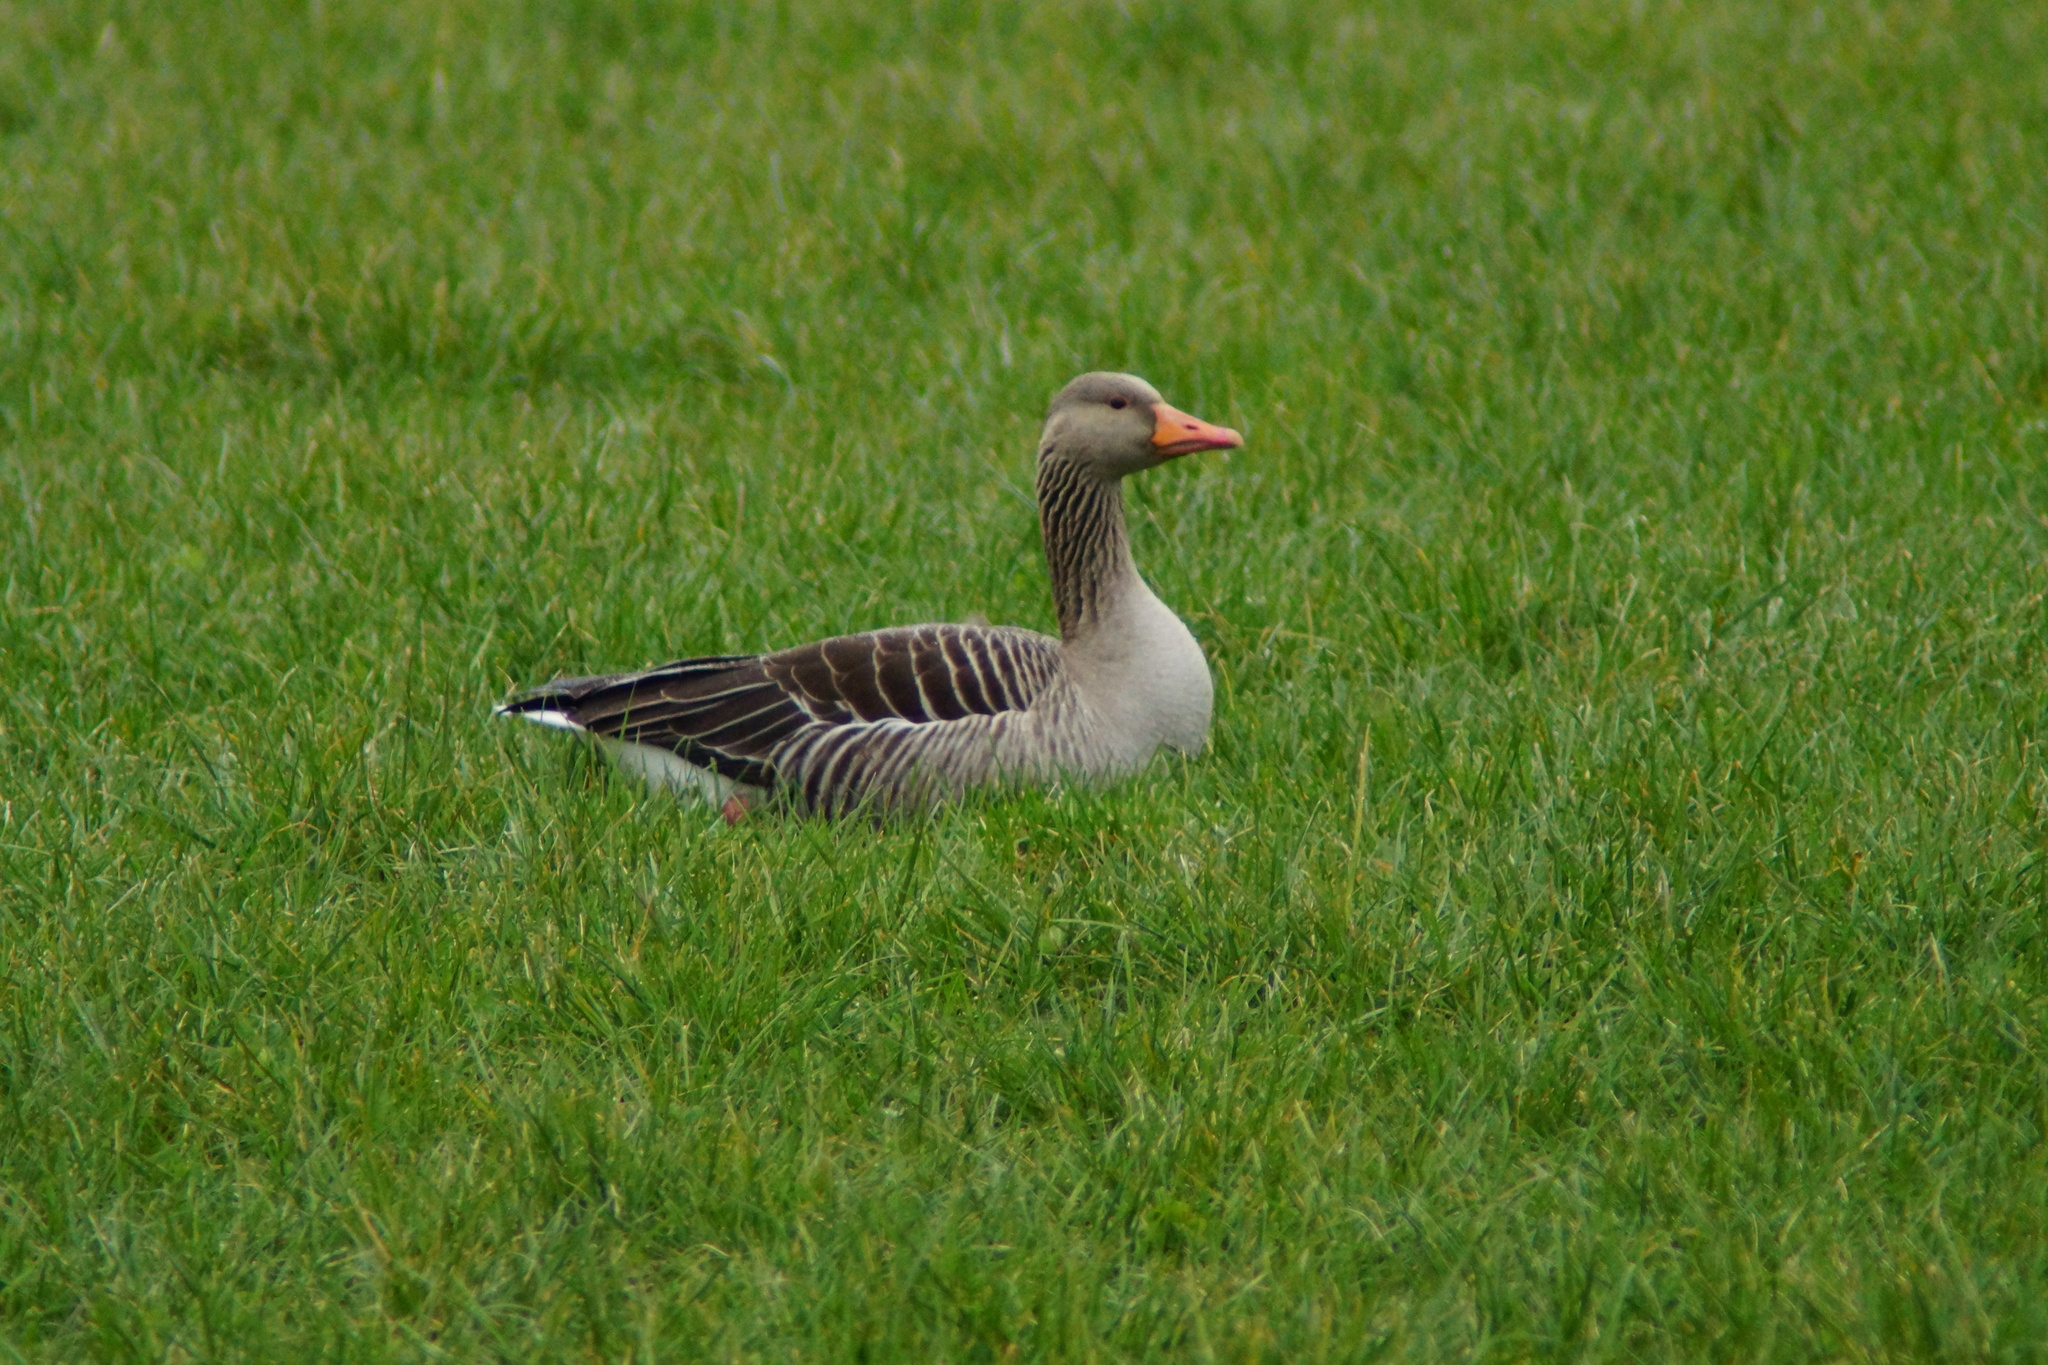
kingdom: Animalia
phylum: Chordata
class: Aves
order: Anseriformes
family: Anatidae
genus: Anser
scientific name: Anser anser
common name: Greylag goose
